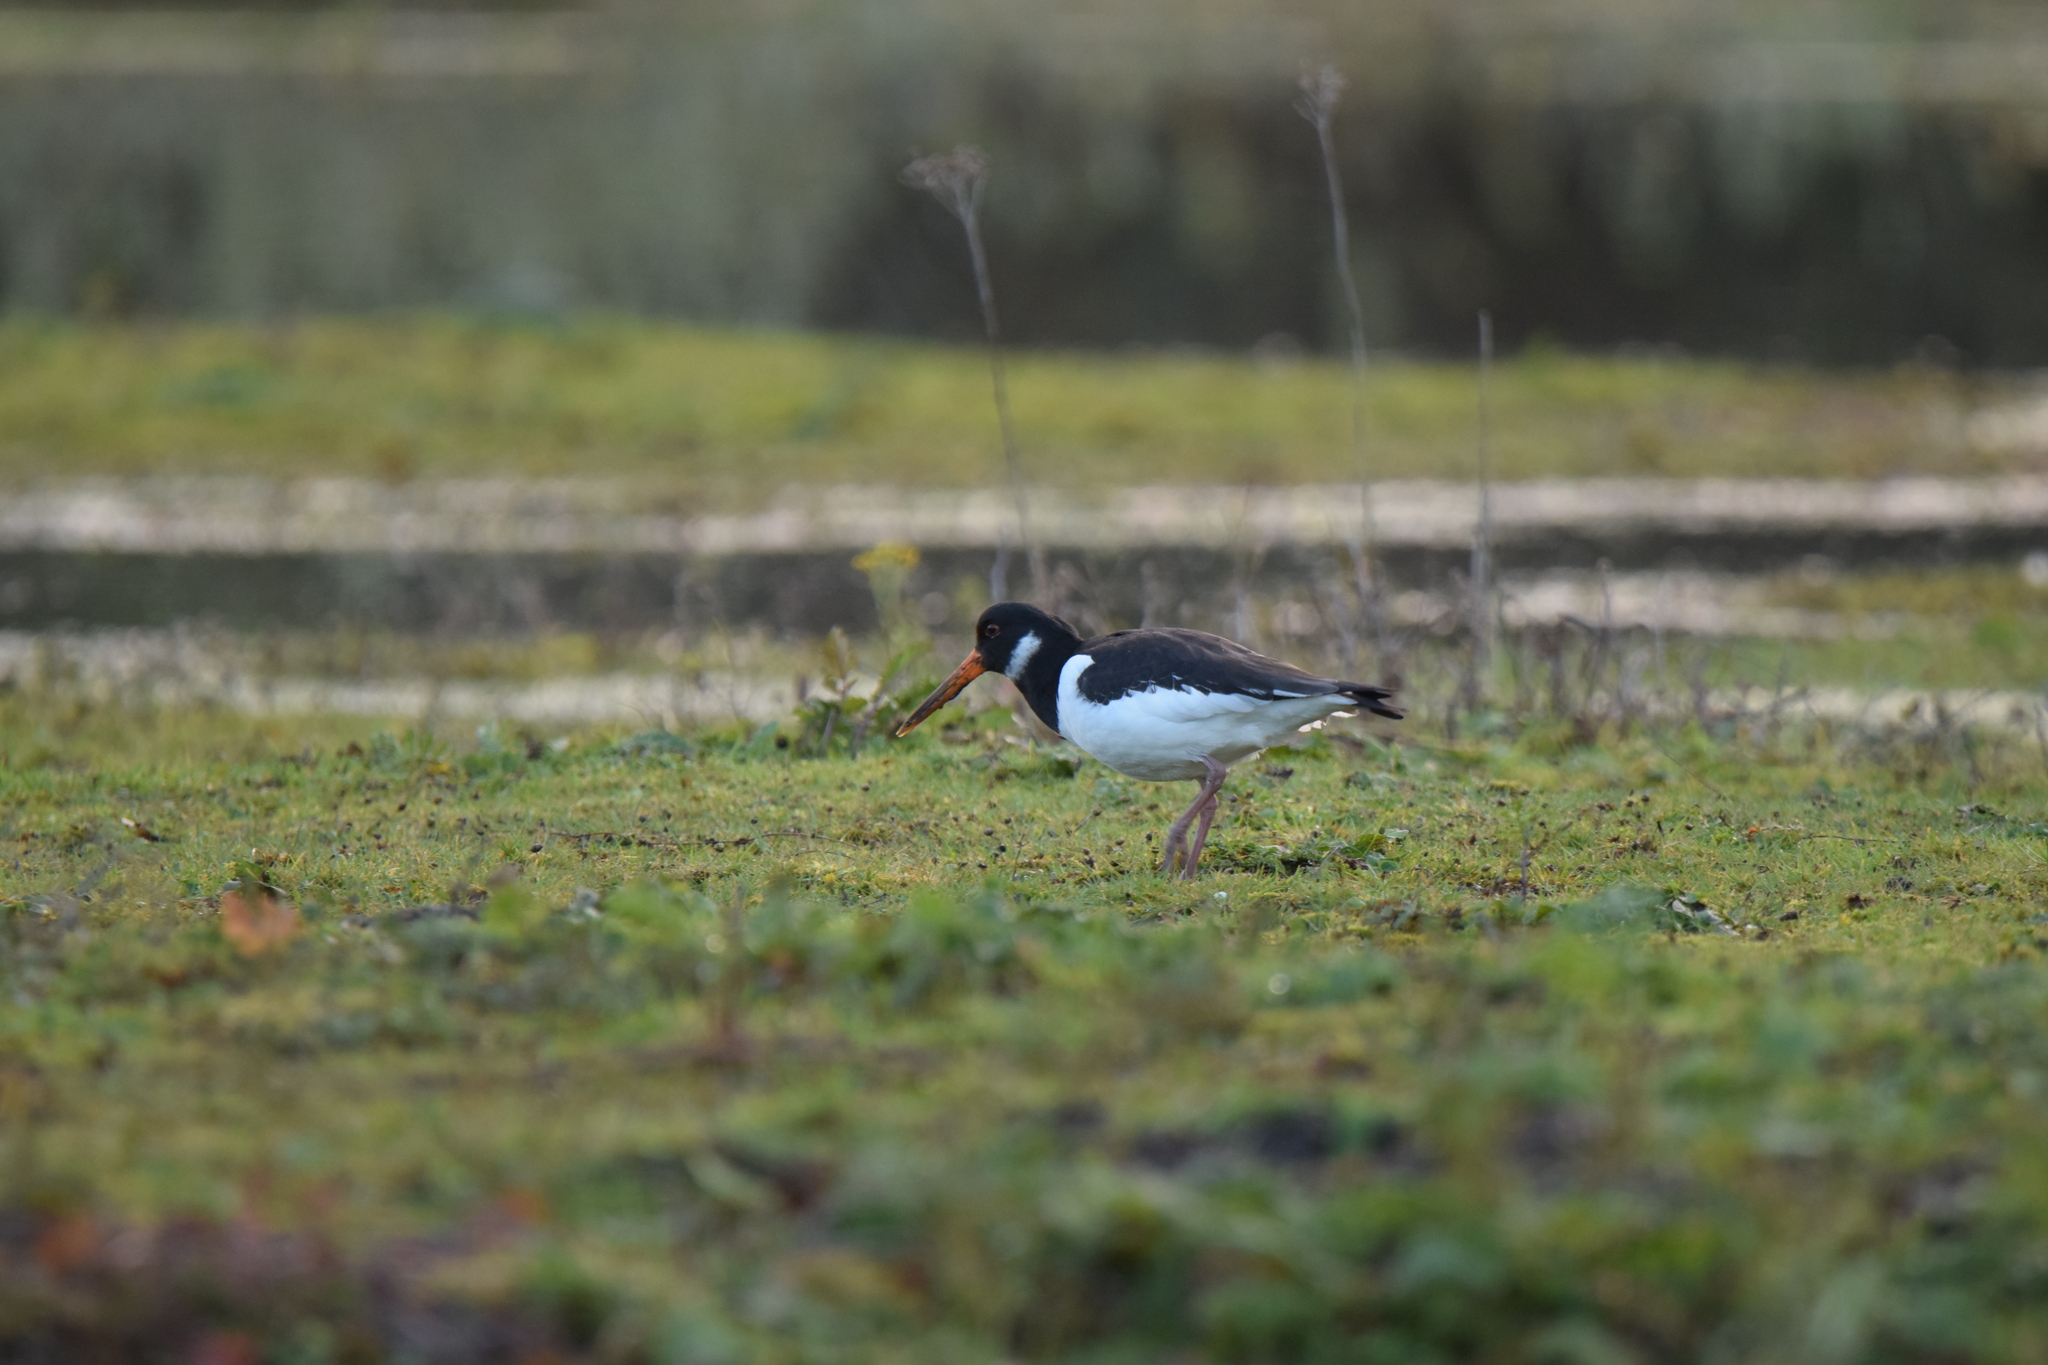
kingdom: Animalia
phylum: Chordata
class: Aves
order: Charadriiformes
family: Haematopodidae
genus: Haematopus
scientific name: Haematopus ostralegus
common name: Eurasian oystercatcher
